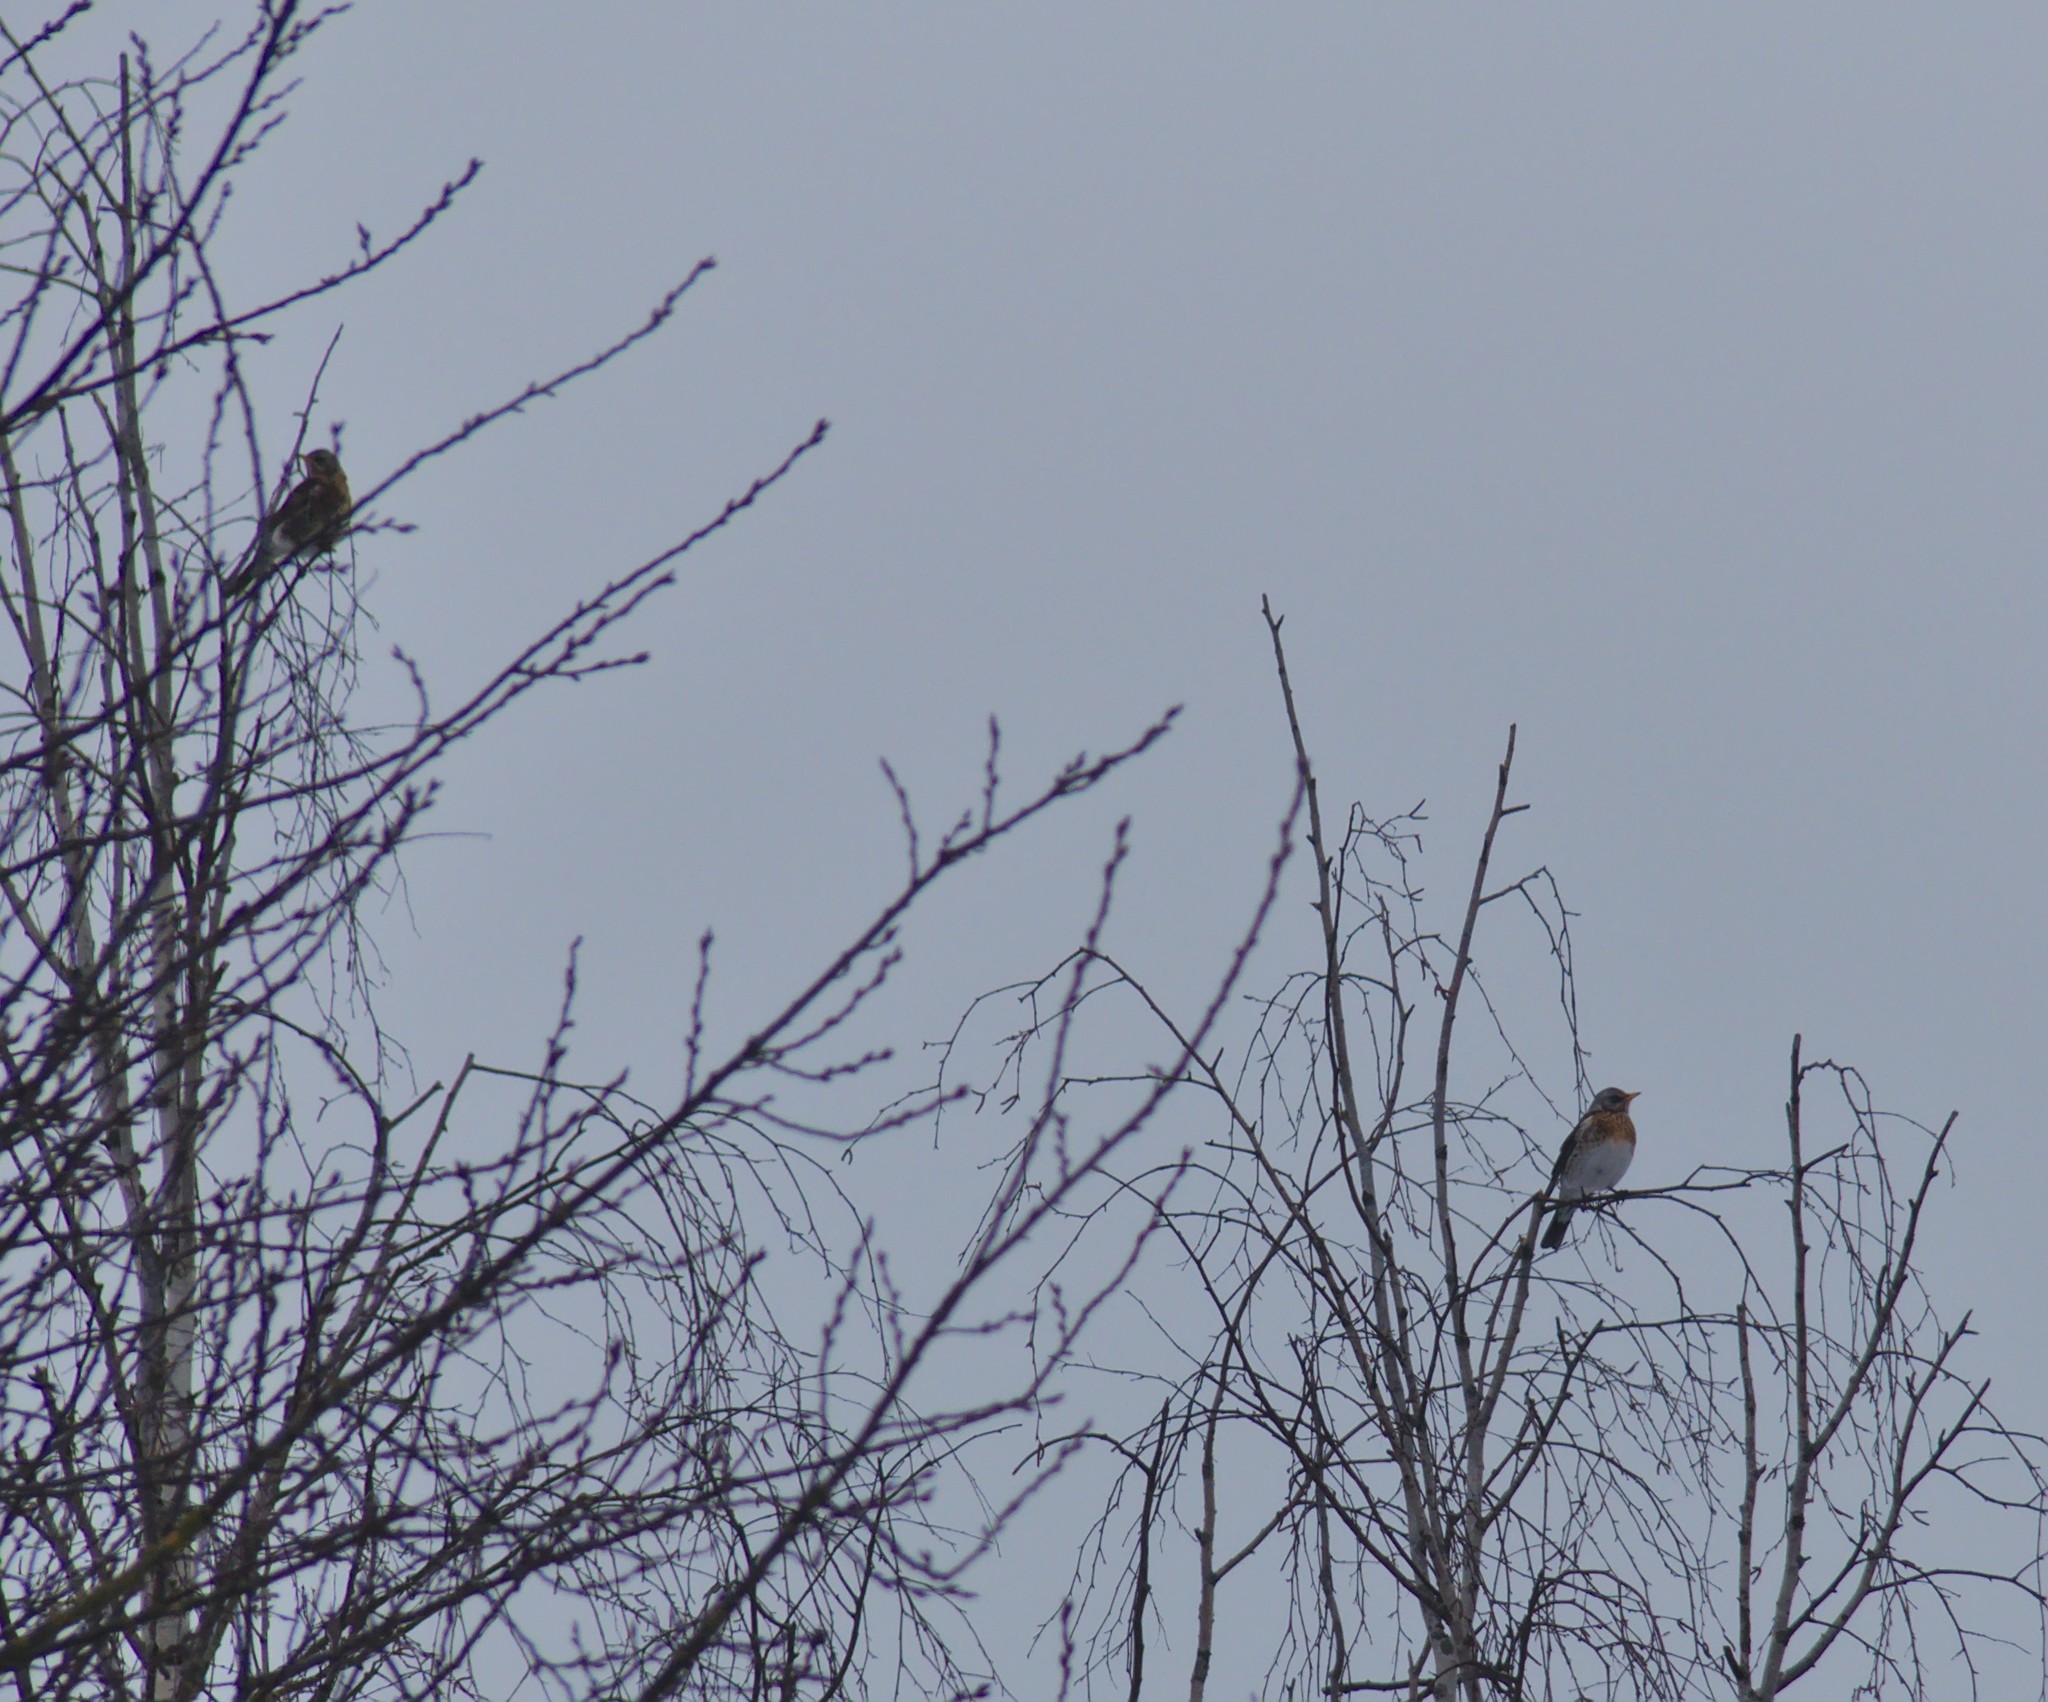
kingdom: Animalia
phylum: Chordata
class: Aves
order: Passeriformes
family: Turdidae
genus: Turdus
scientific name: Turdus pilaris
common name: Fieldfare
